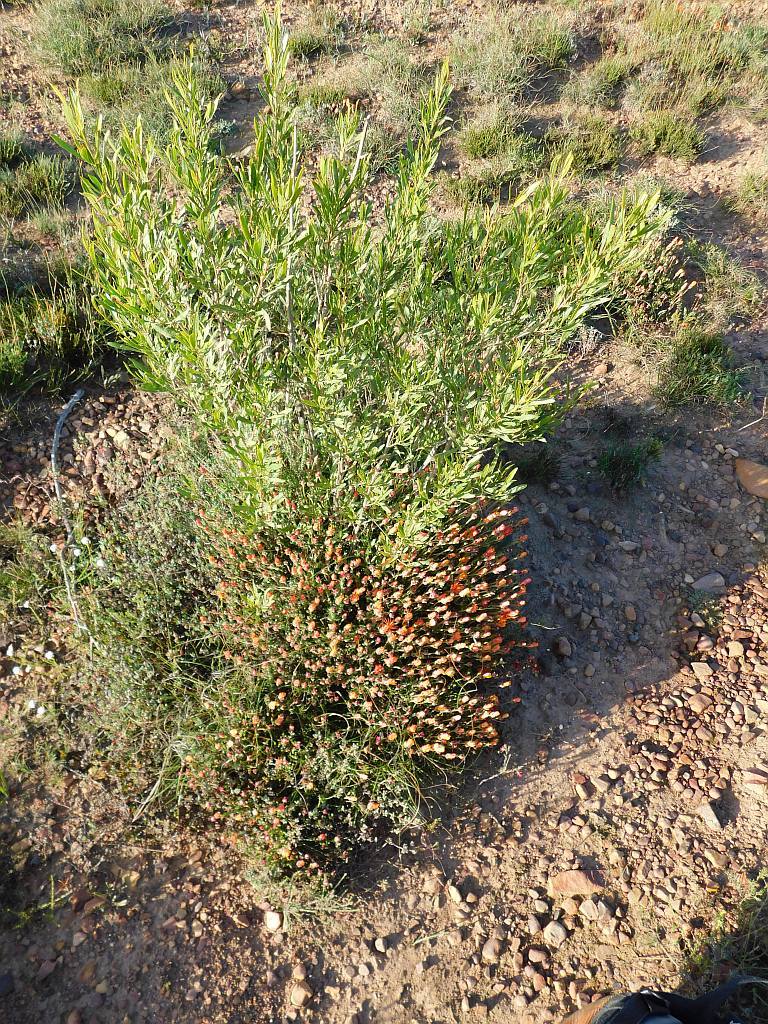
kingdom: Plantae
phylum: Tracheophyta
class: Magnoliopsida
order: Caryophyllales
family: Aizoaceae
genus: Drosanthemum
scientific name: Drosanthemum flavum
